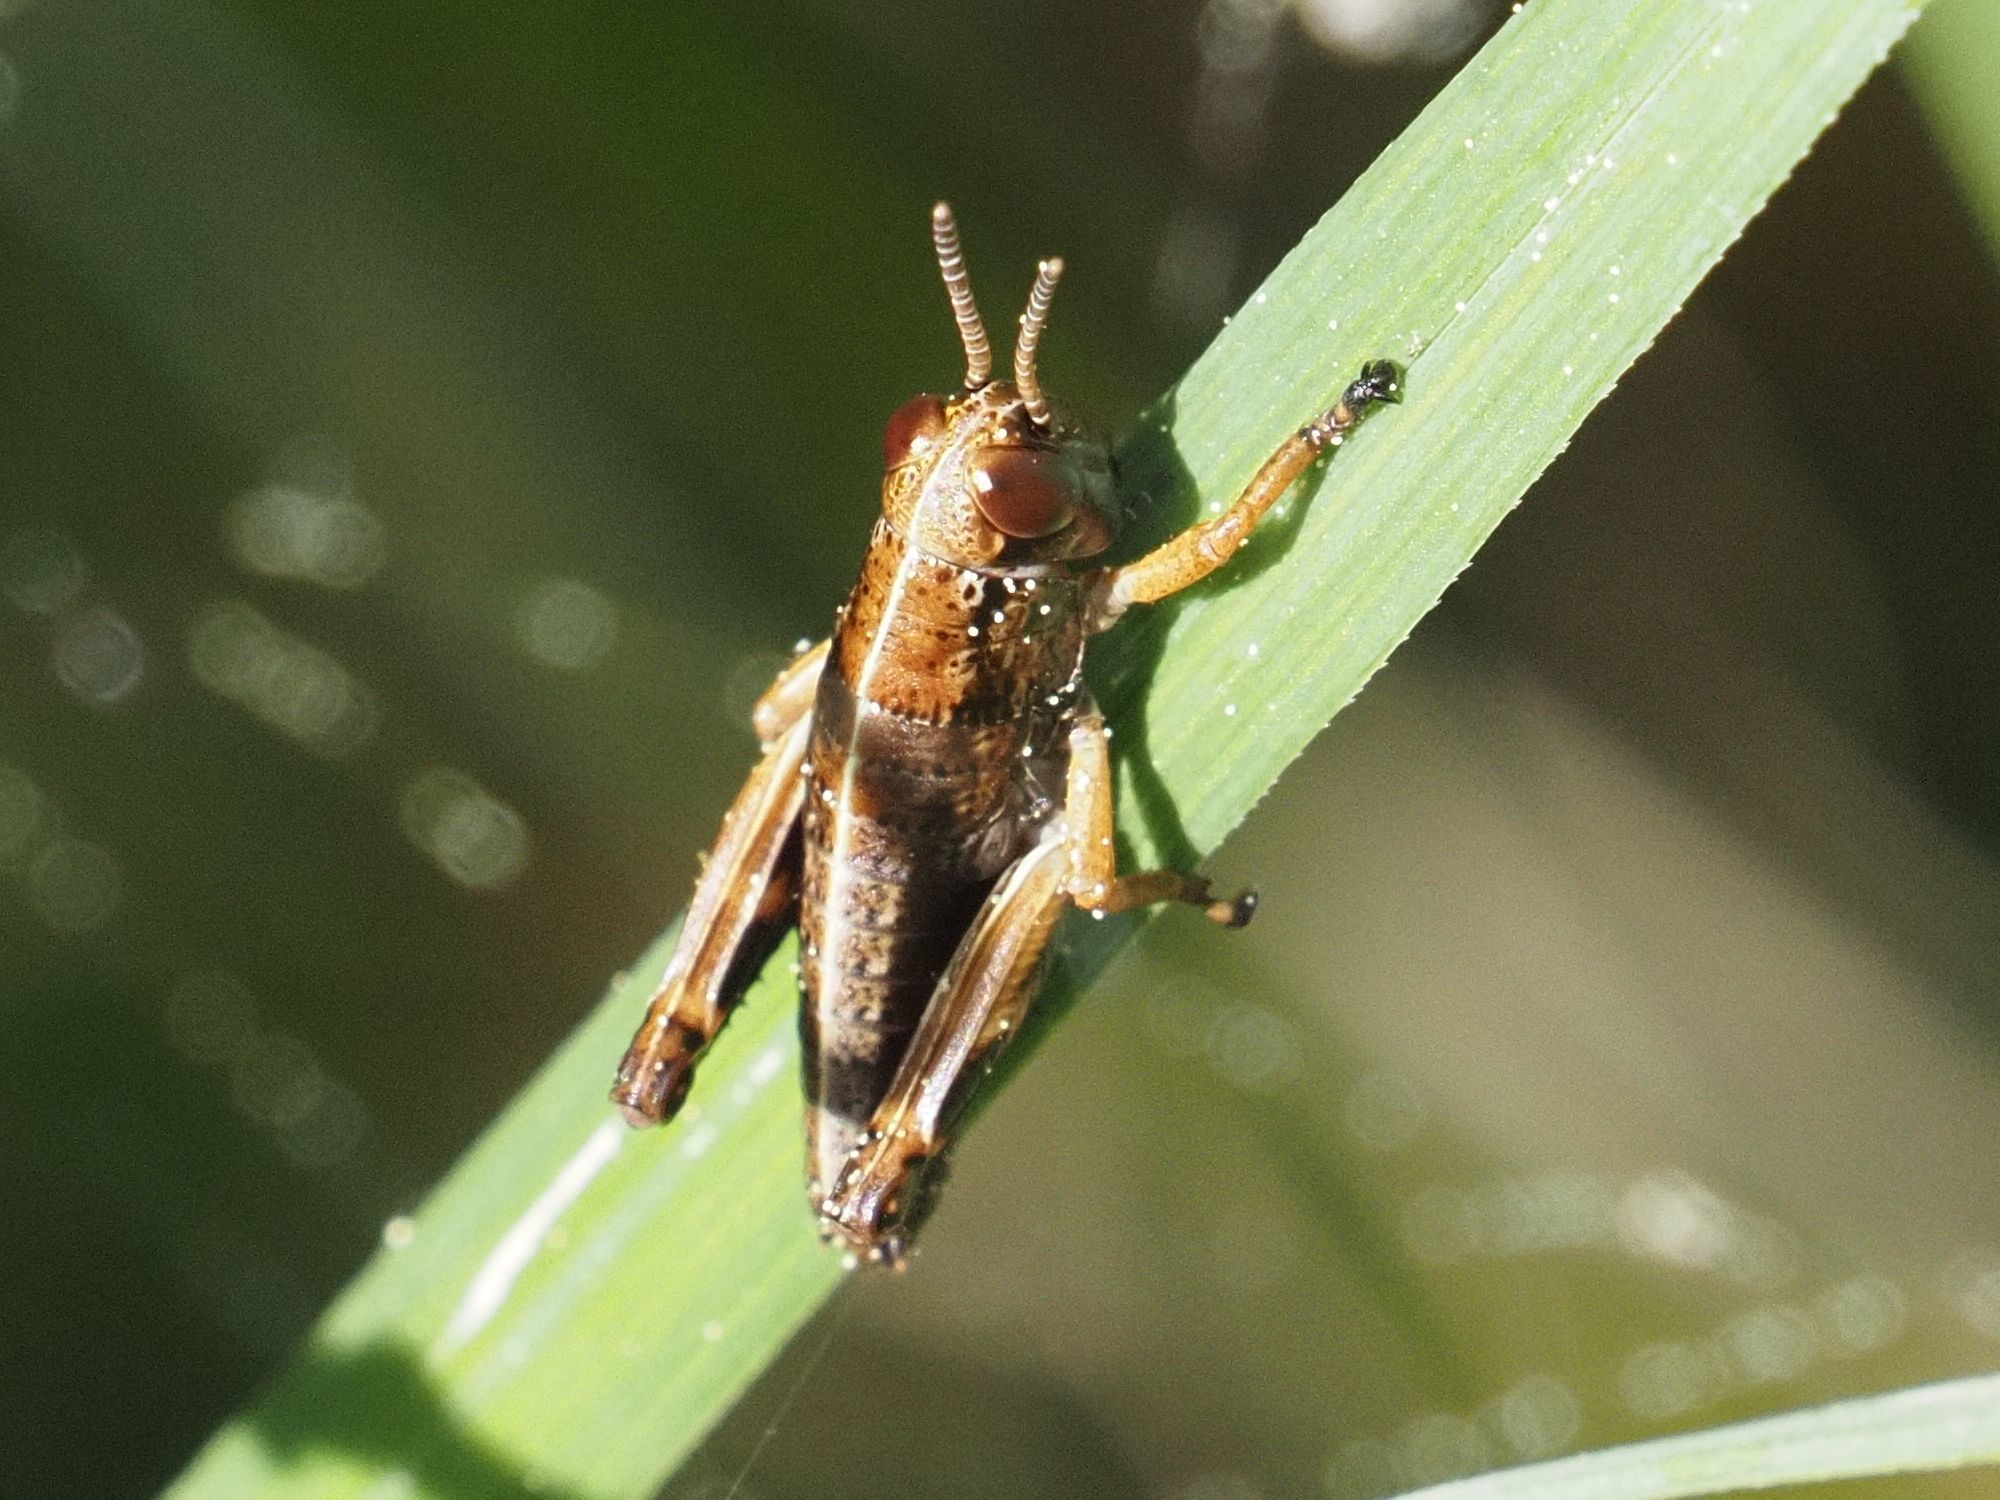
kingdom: Animalia
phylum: Arthropoda
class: Insecta
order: Orthoptera
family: Acrididae
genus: Miramella
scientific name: Miramella alpina
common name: Green mountain grasshopper
